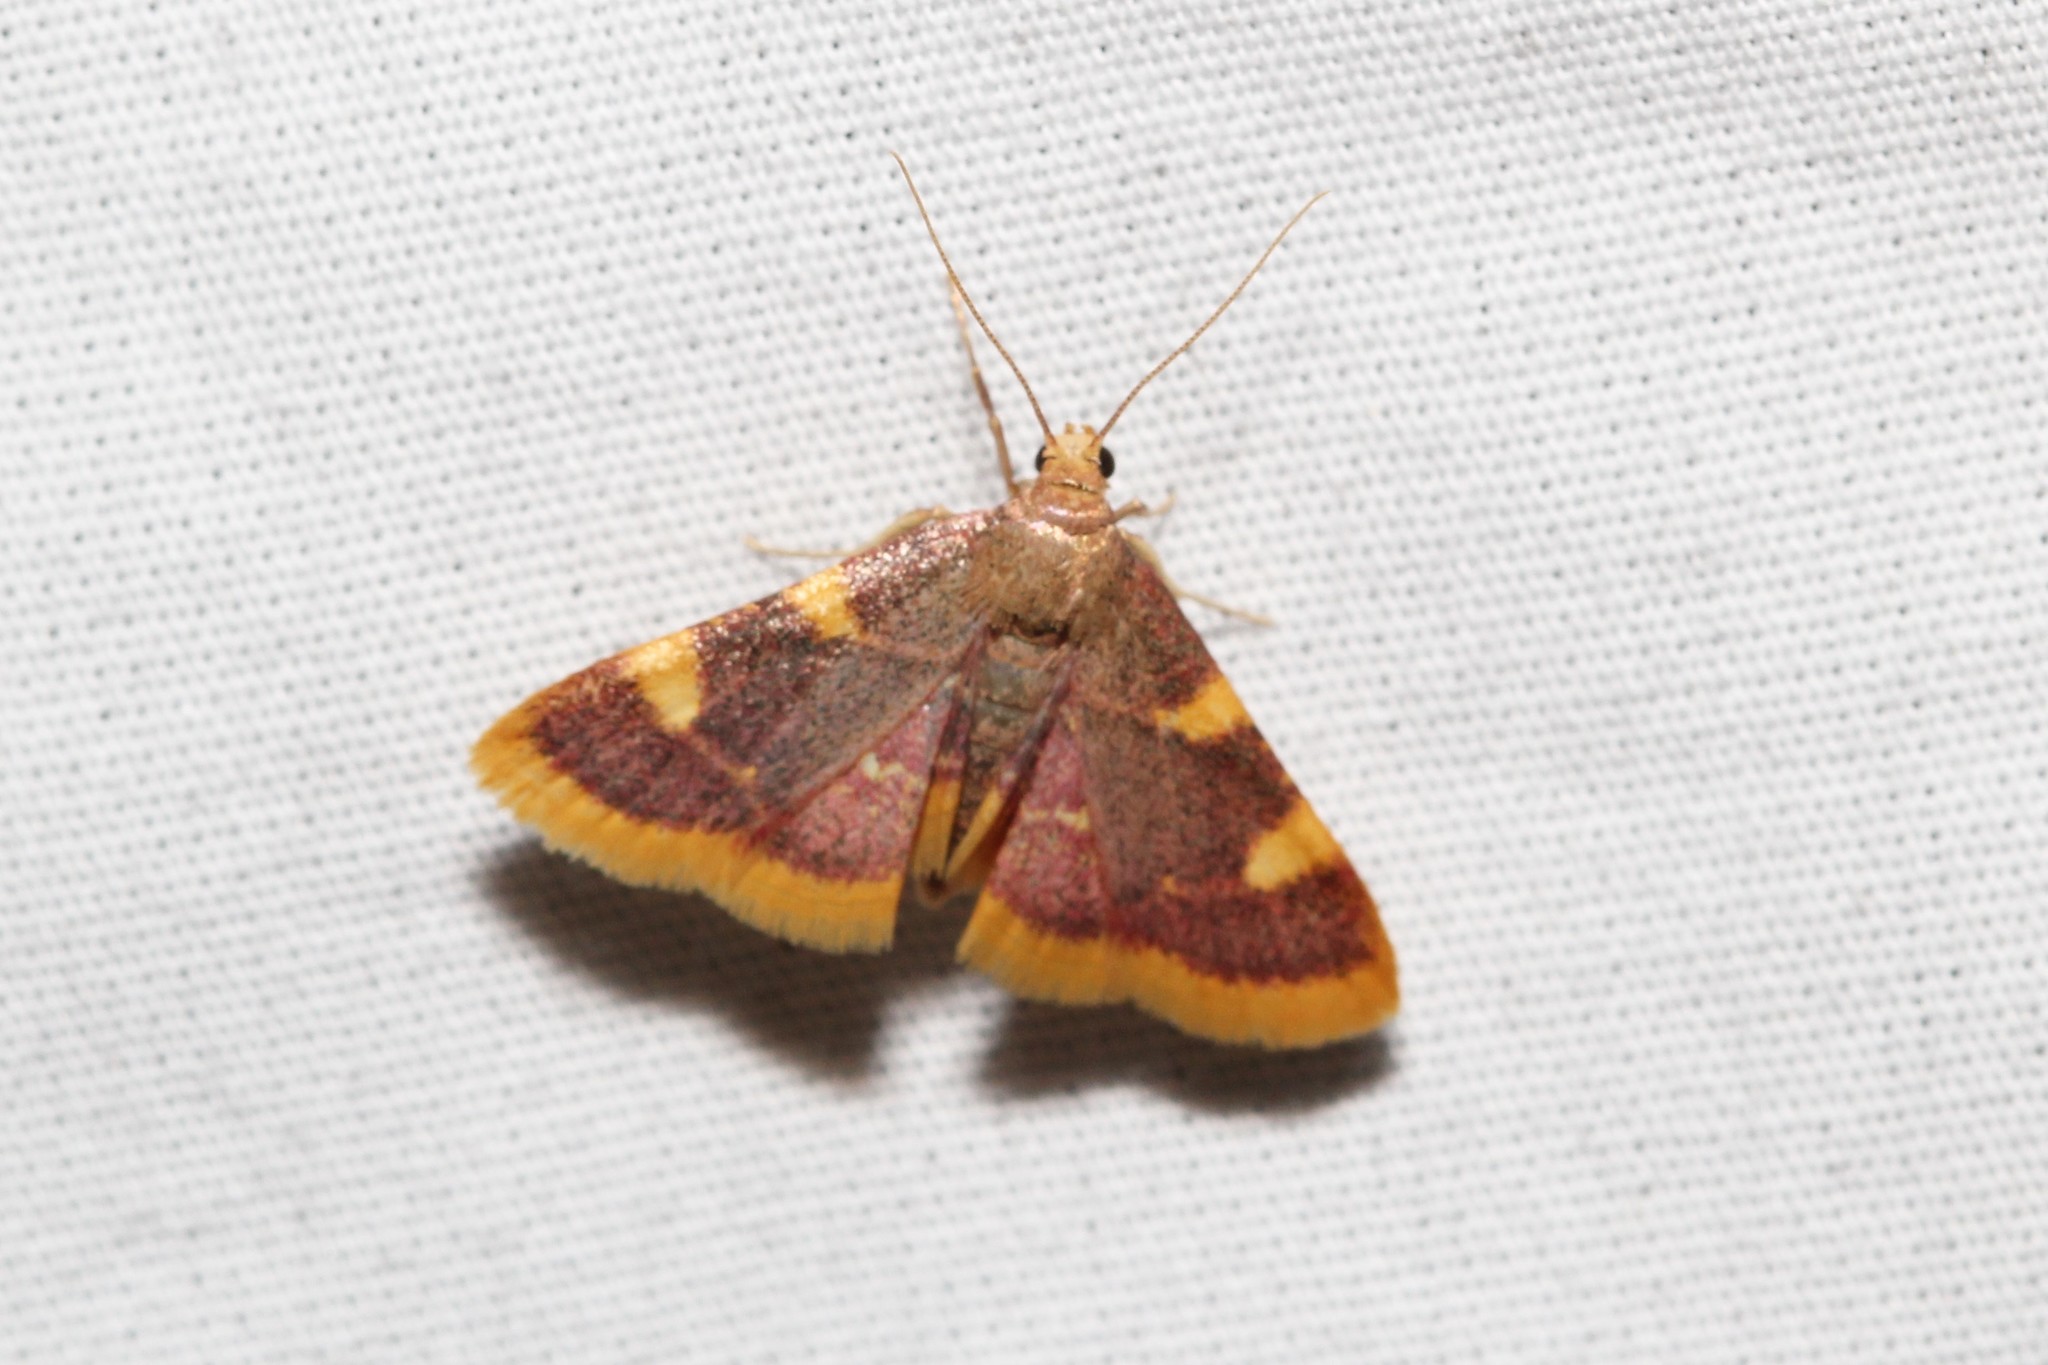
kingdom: Animalia
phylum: Arthropoda
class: Insecta
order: Lepidoptera
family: Pyralidae
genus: Hypsopygia
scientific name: Hypsopygia costalis
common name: Gold triangle
